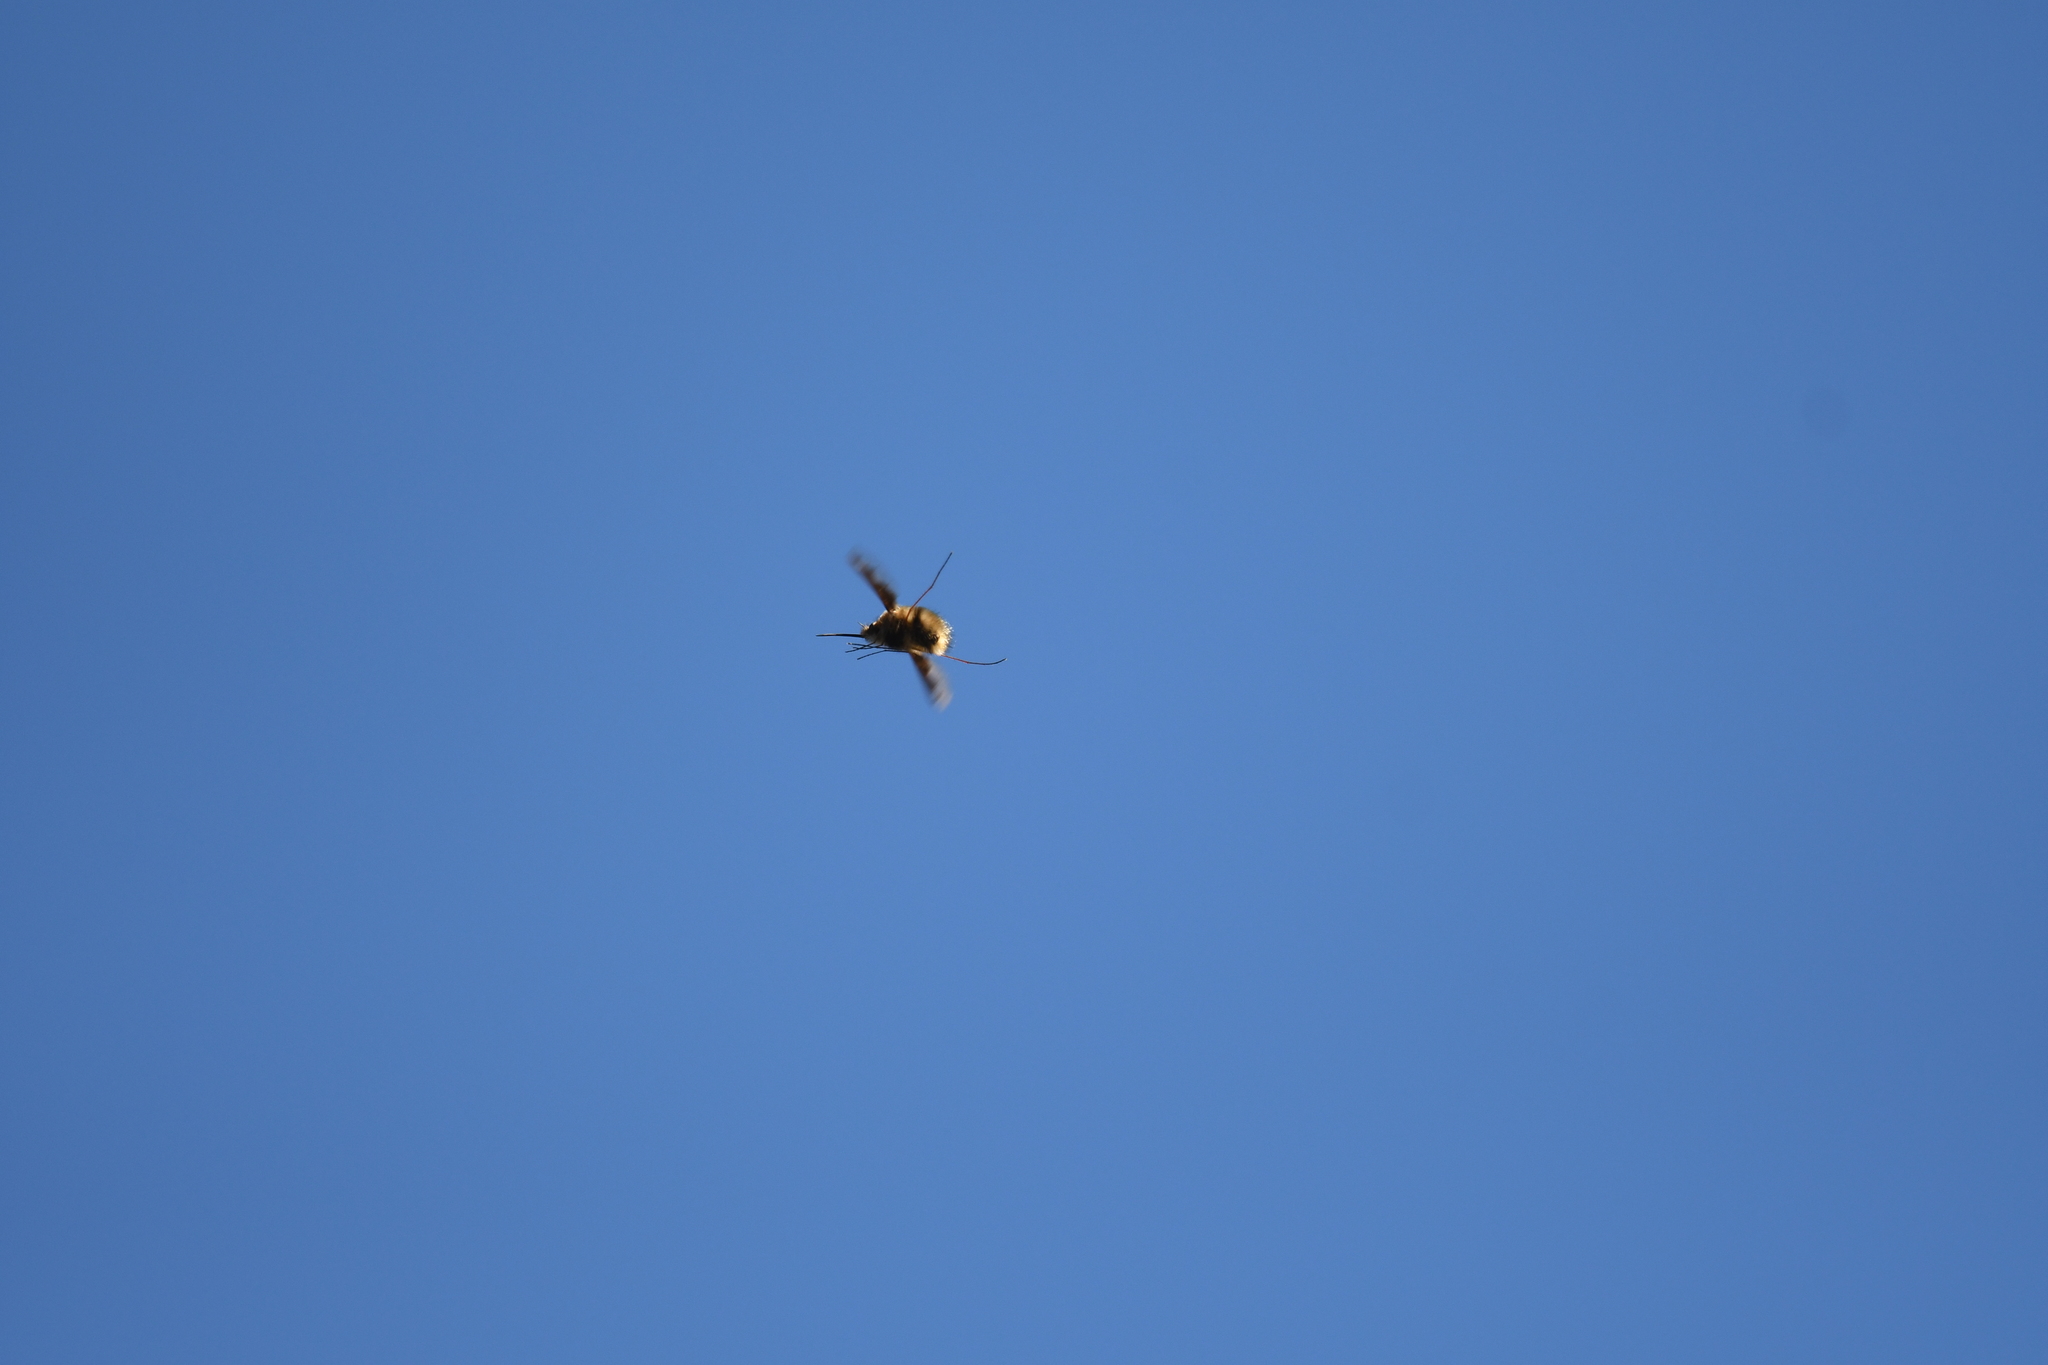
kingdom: Animalia
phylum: Arthropoda
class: Insecta
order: Diptera
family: Bombyliidae
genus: Bombylius
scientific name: Bombylius major
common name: Bee fly
